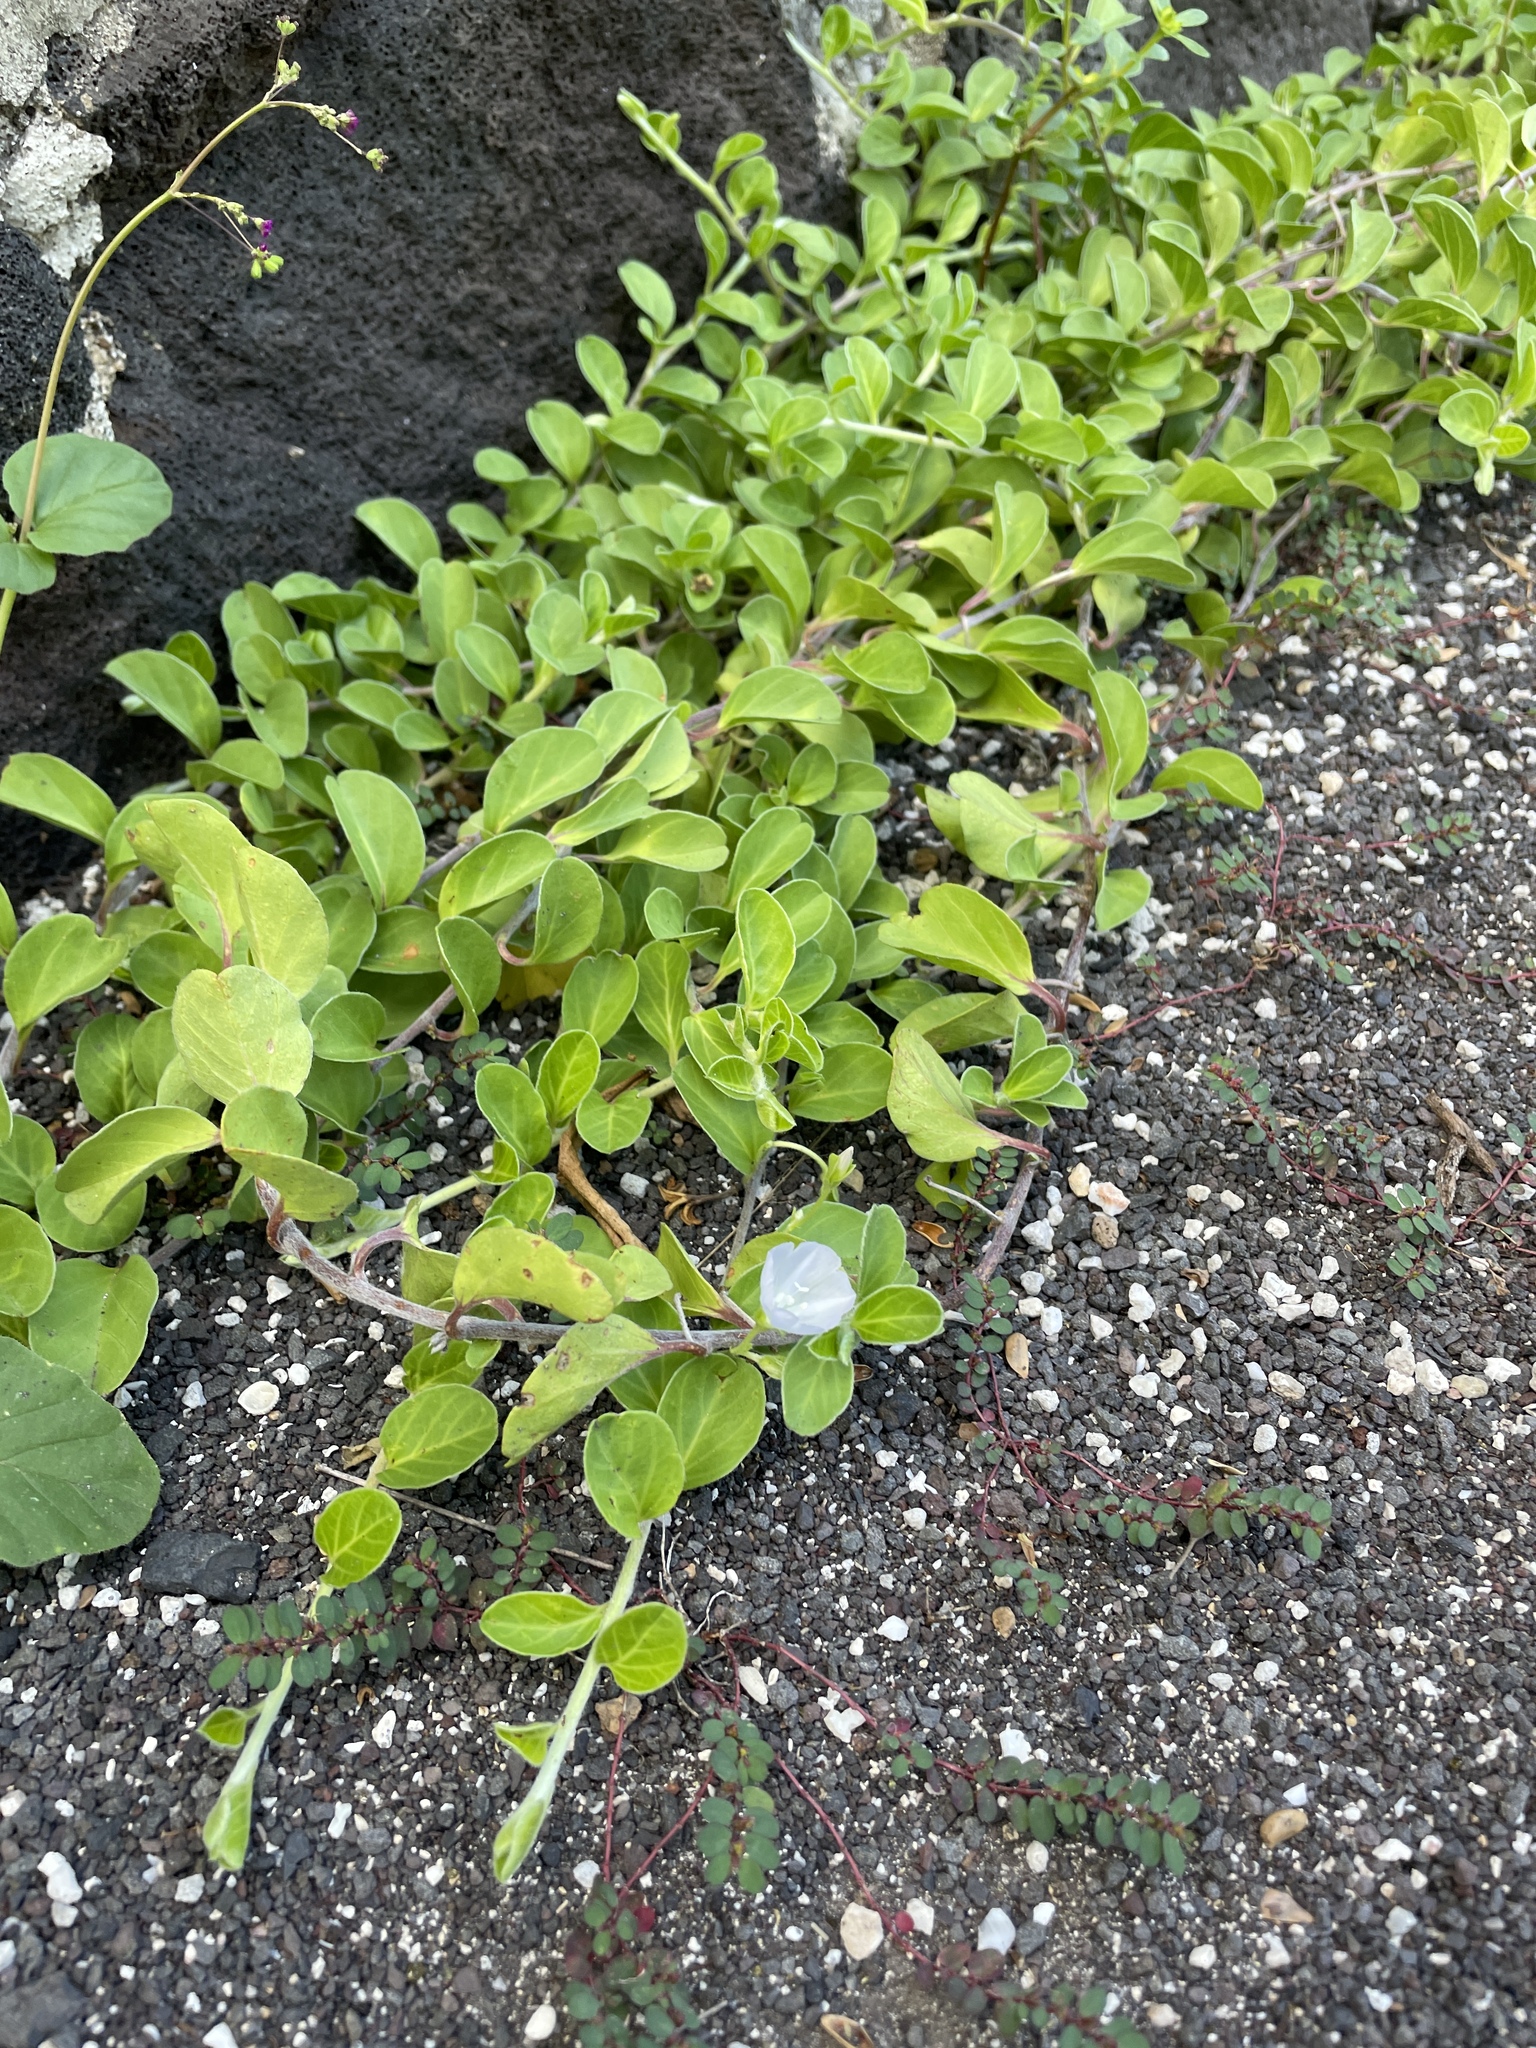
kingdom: Plantae
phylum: Tracheophyta
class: Magnoliopsida
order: Solanales
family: Convolvulaceae
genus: Jacquemontia
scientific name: Jacquemontia sandwicensis
